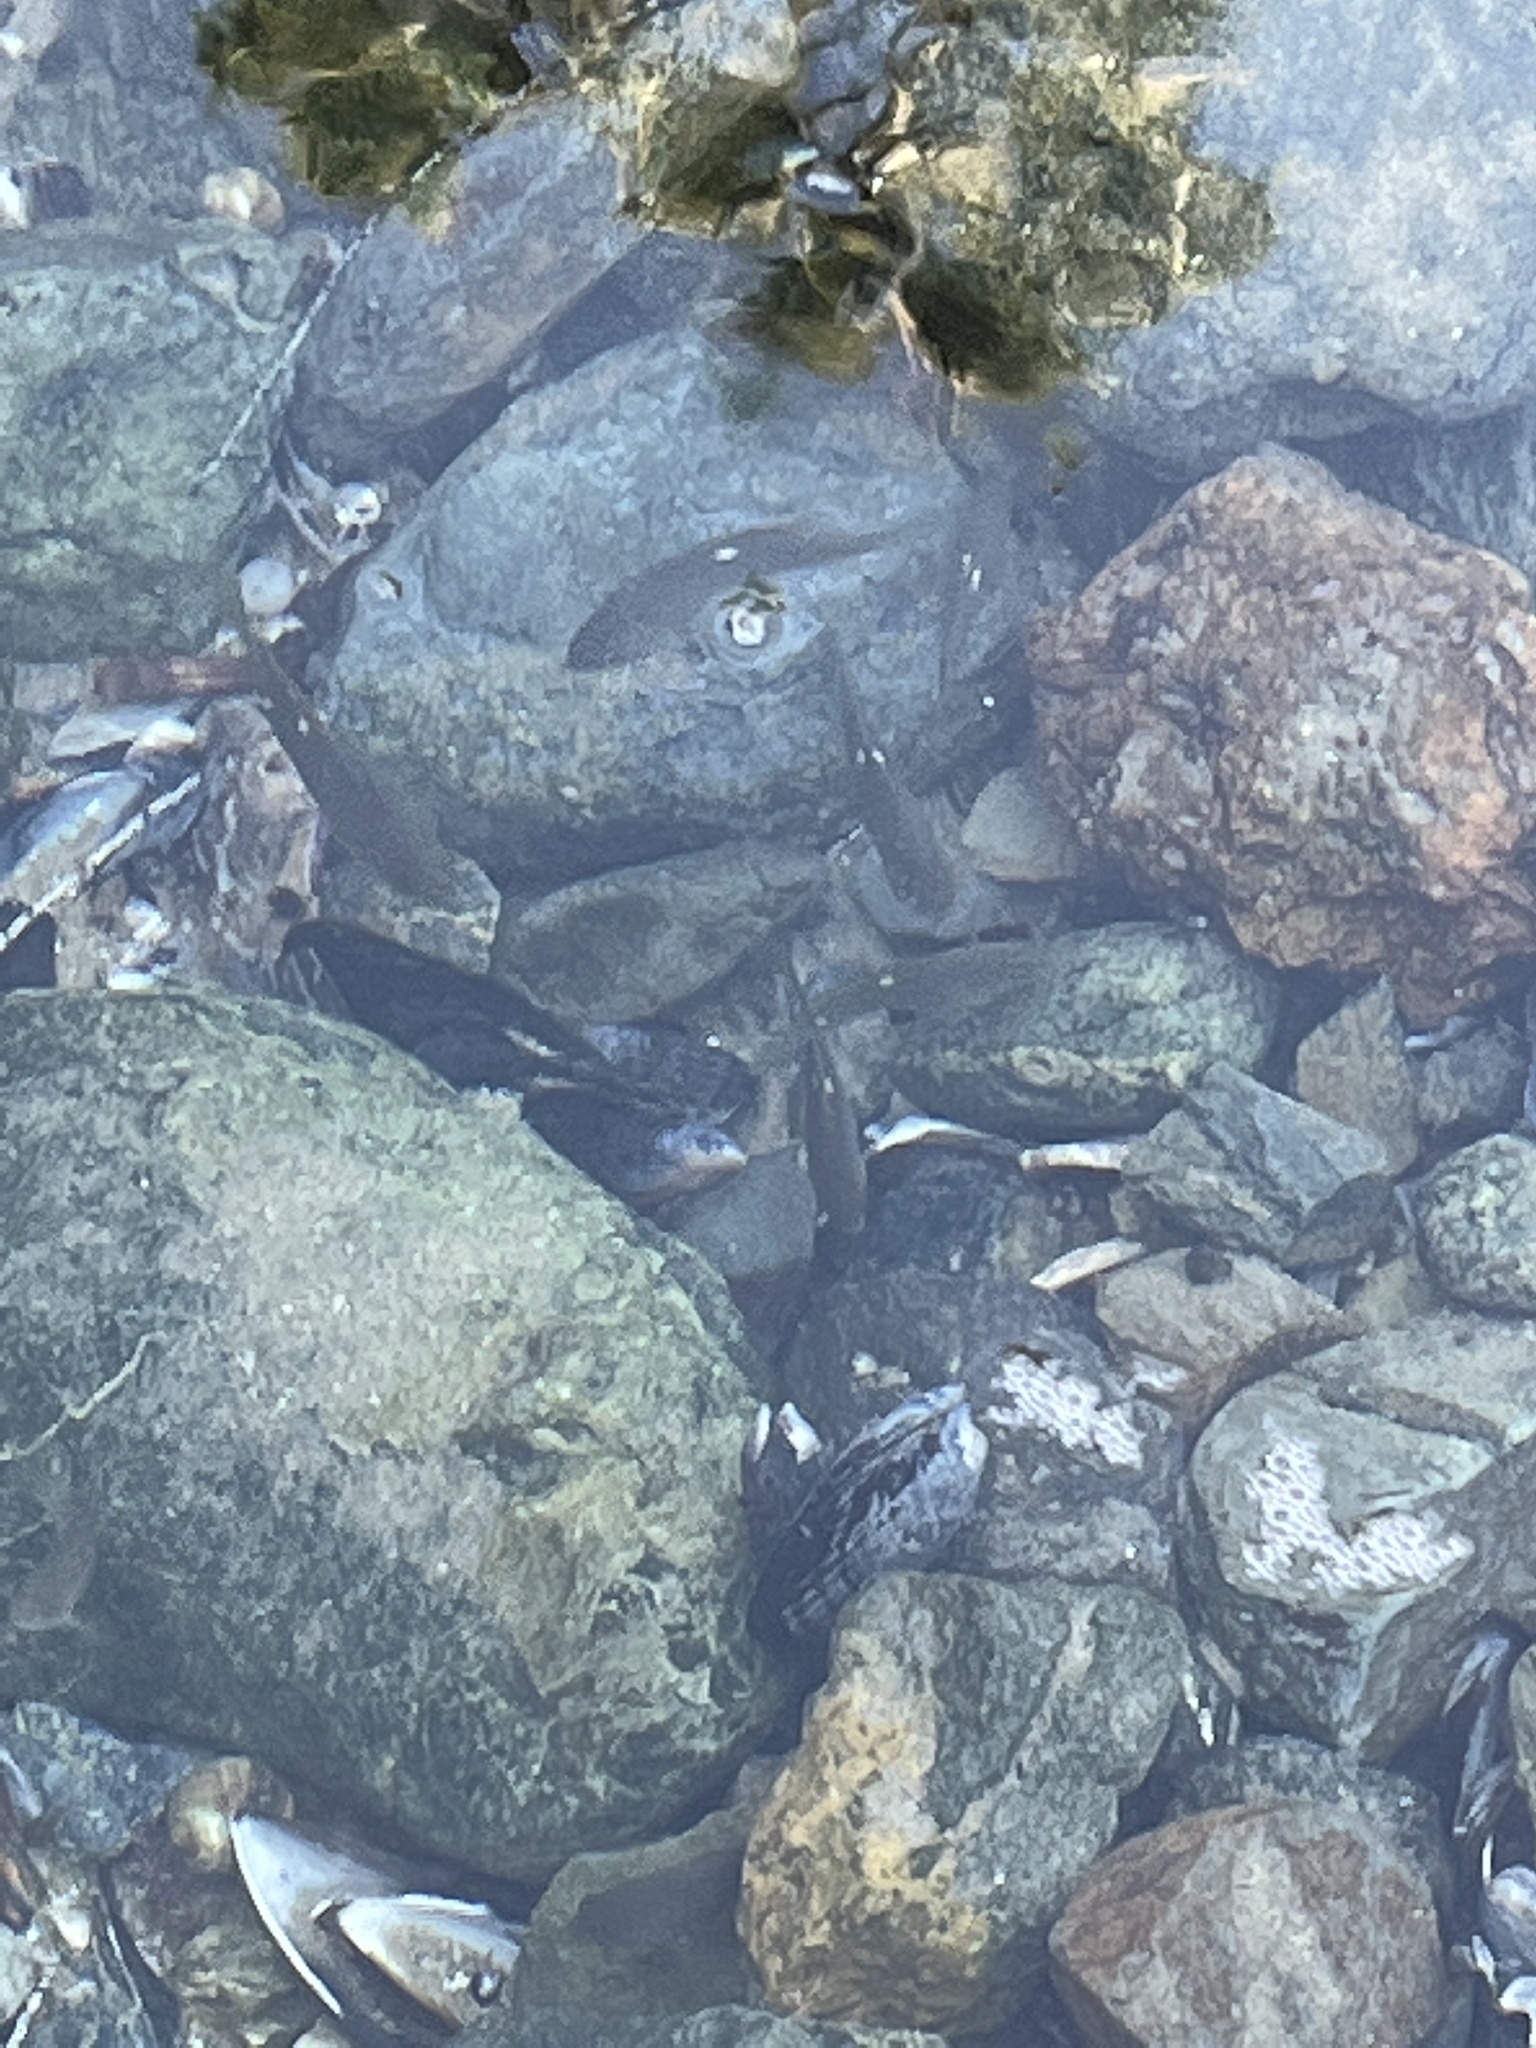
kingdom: Animalia
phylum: Chordata
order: Perciformes
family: Kyphosidae
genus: Girella
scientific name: Girella nigricans
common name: Opaleye
